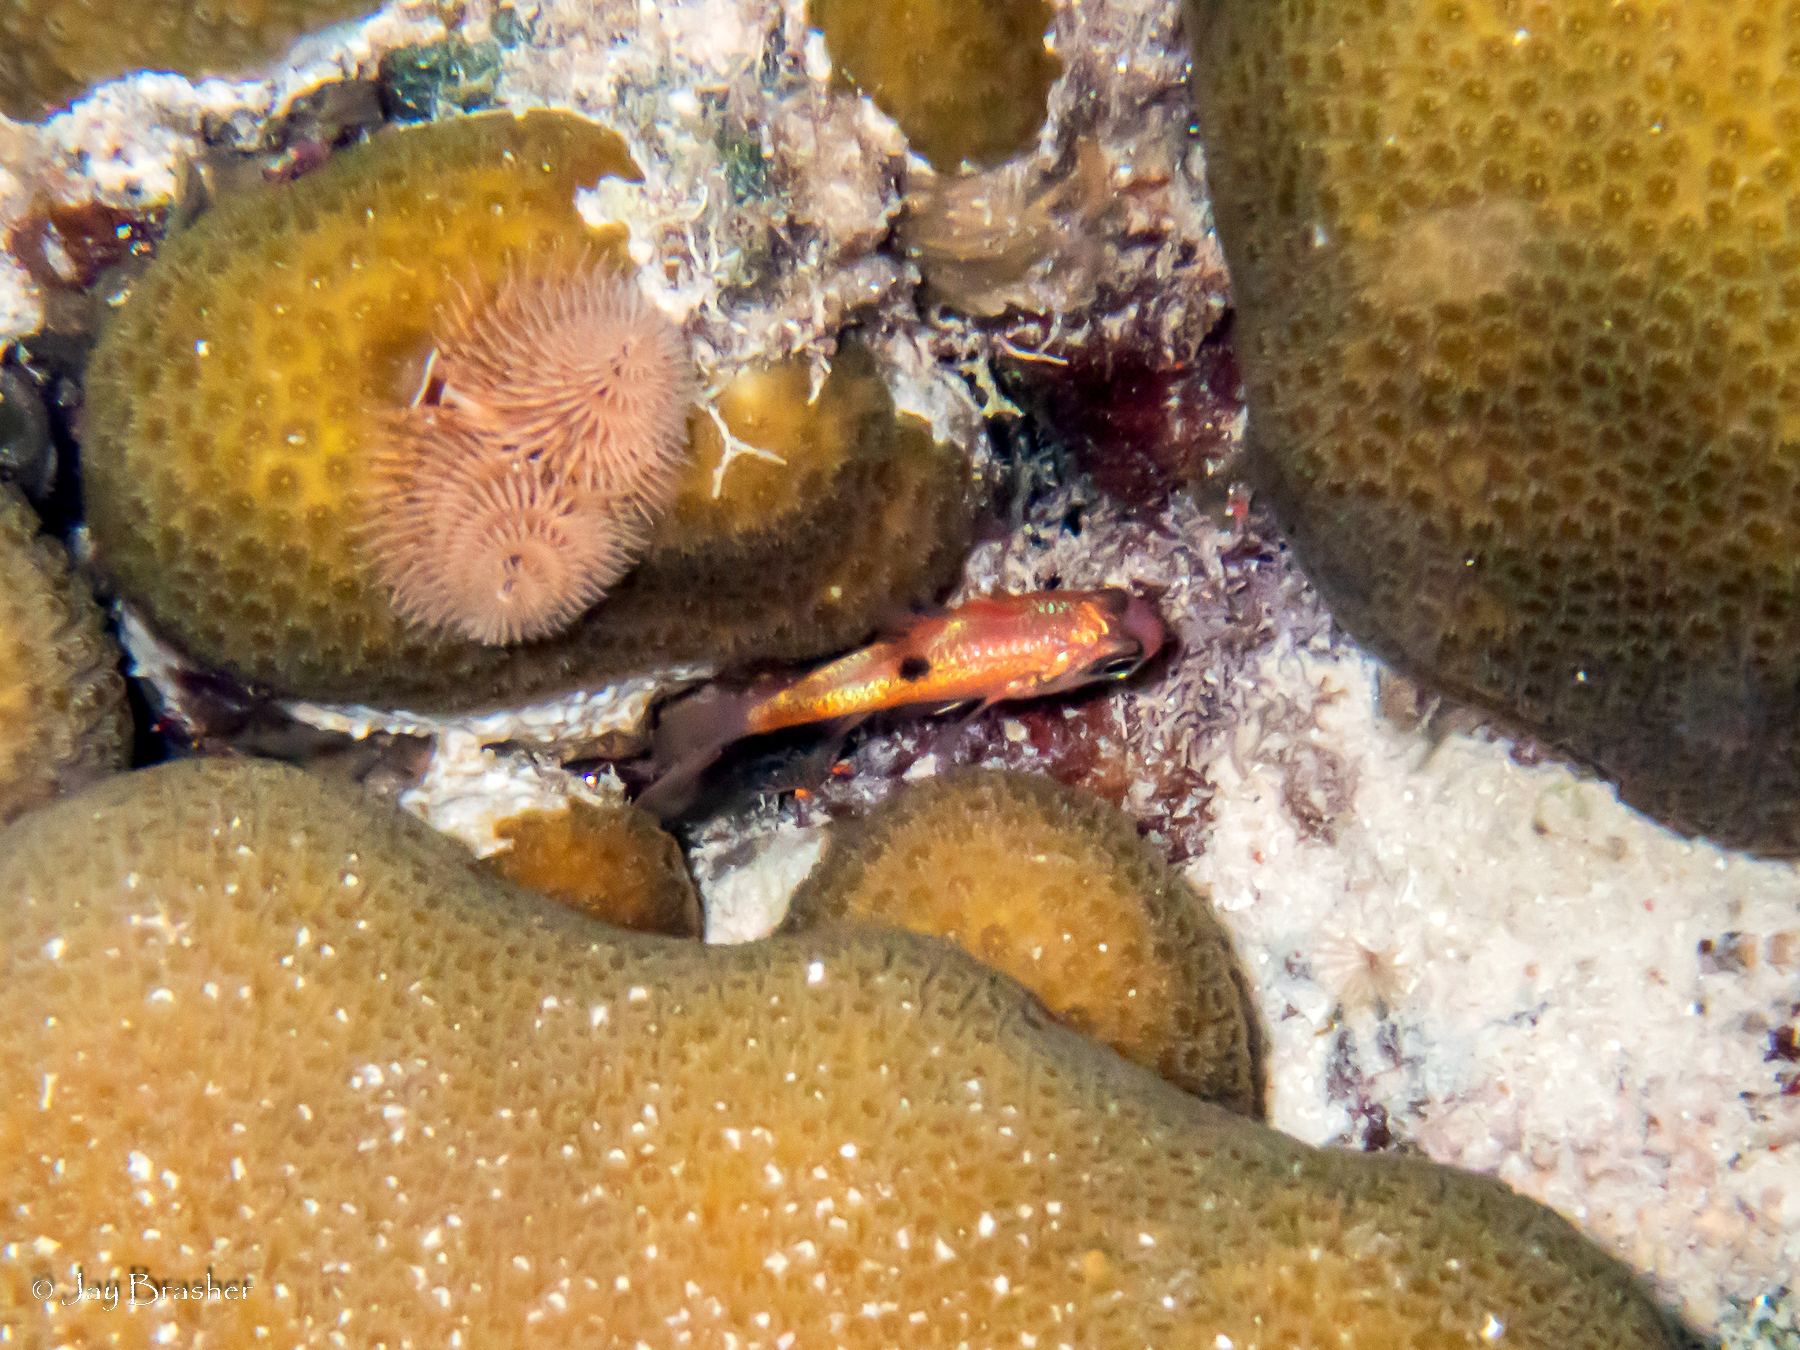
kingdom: Animalia
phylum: Annelida
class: Polychaeta
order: Sabellida
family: Serpulidae
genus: Spirobranchus
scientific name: Spirobranchus giganteus
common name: Christmas tree worm
